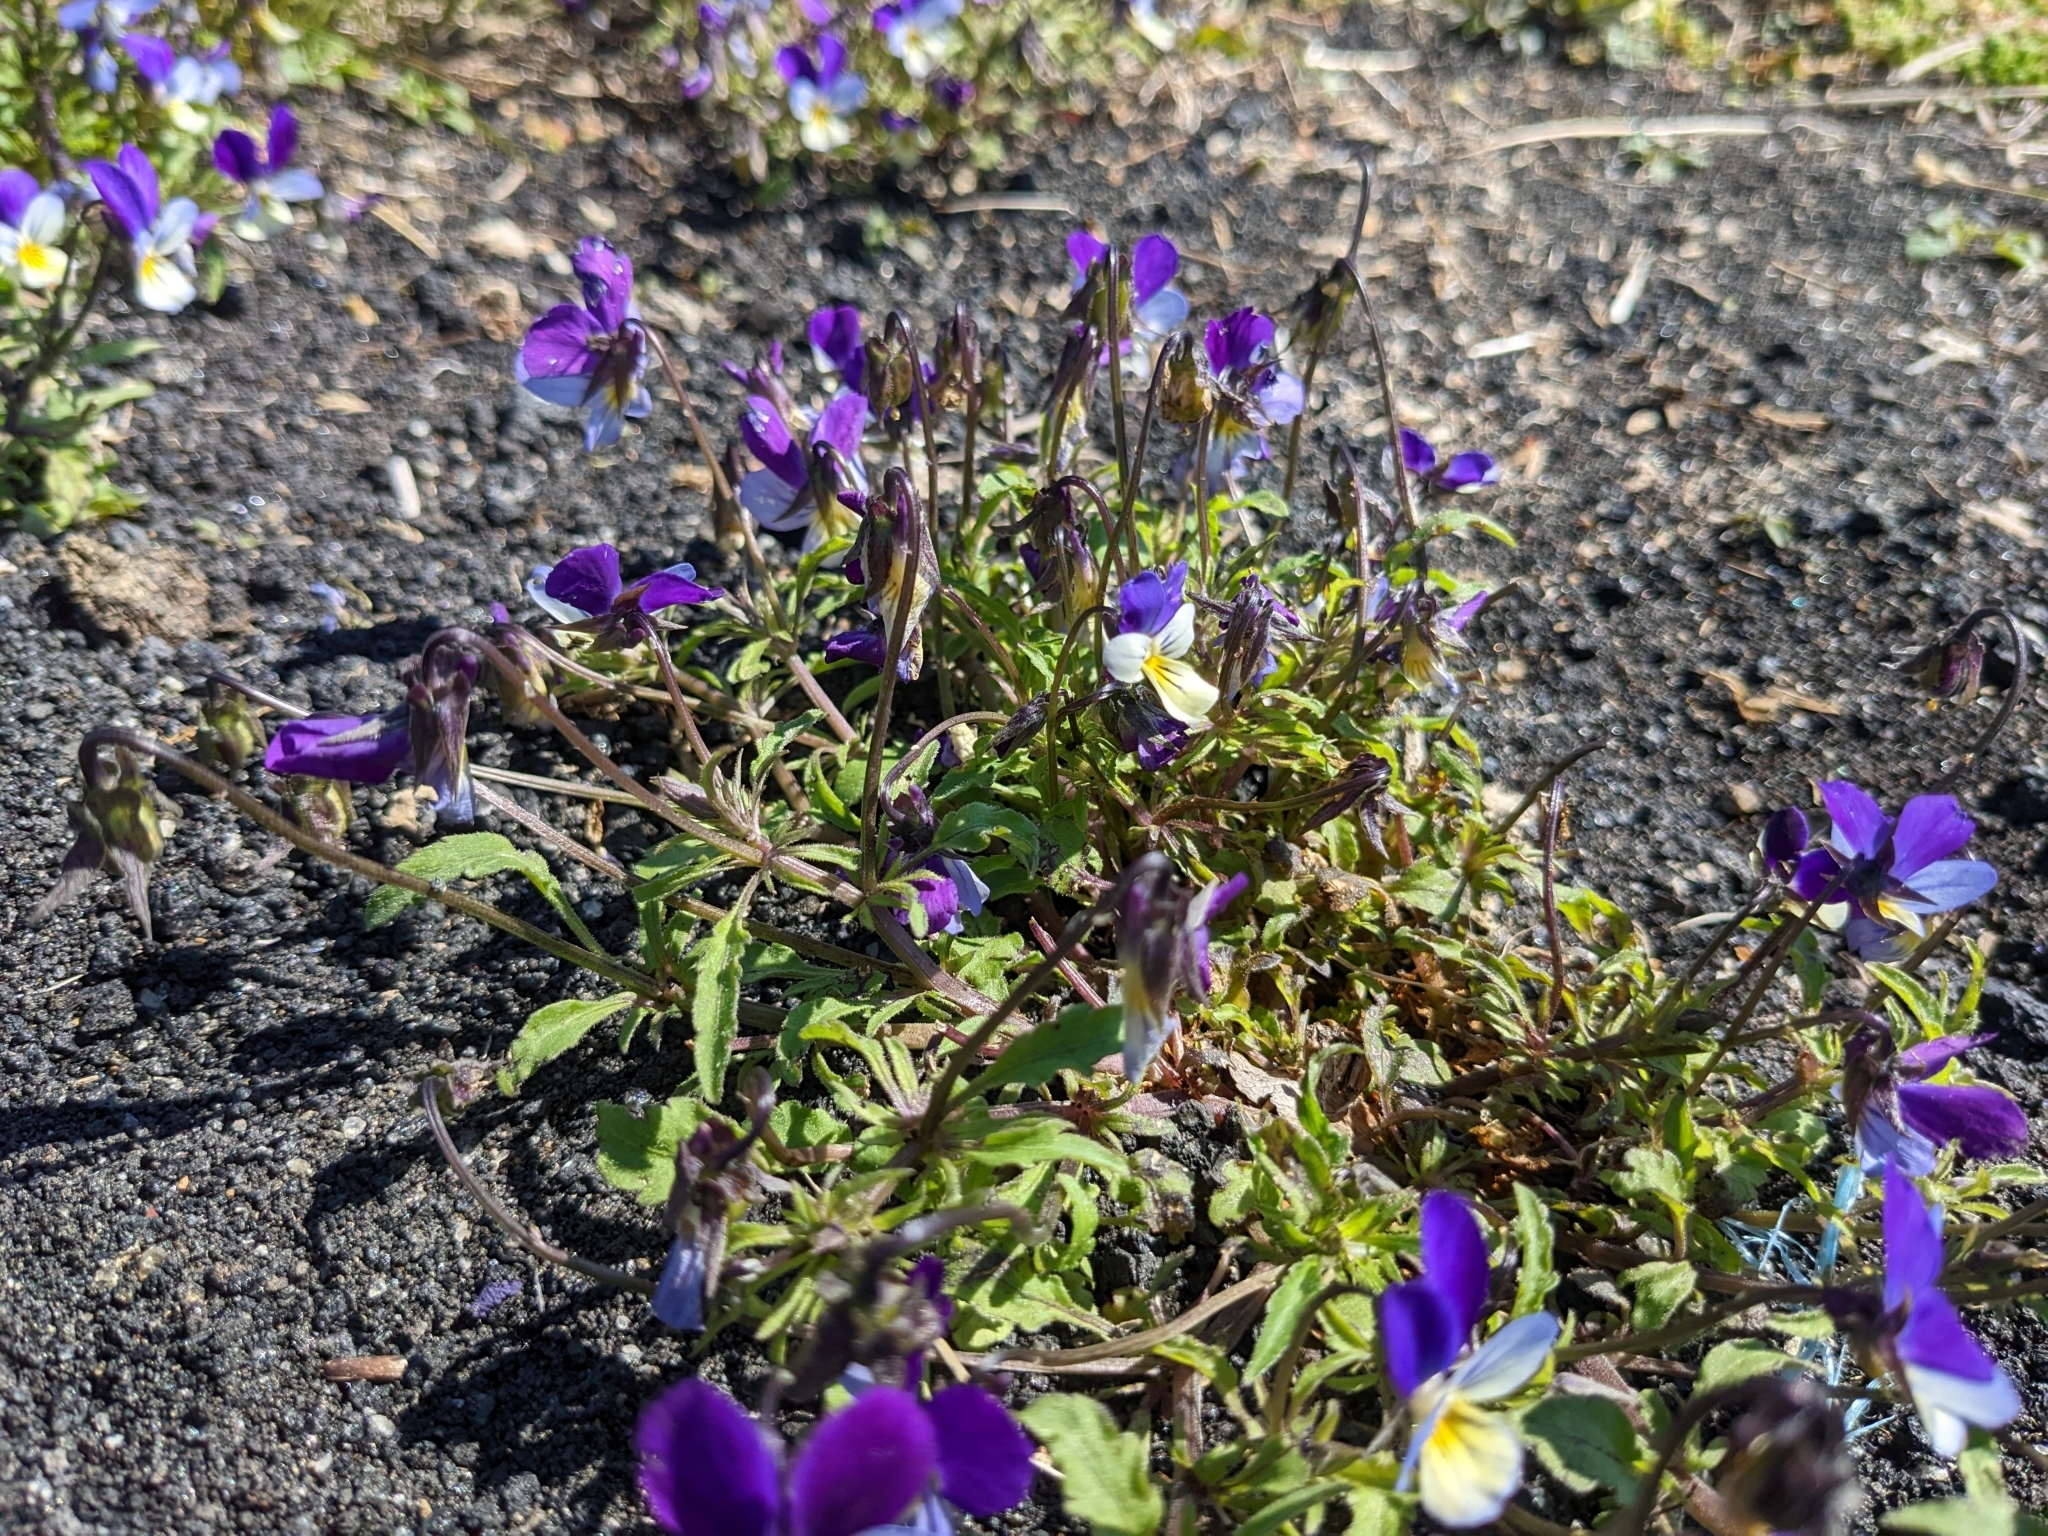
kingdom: Plantae
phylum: Tracheophyta
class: Magnoliopsida
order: Malpighiales
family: Violaceae
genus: Viola
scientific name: Viola tricolor
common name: Pansy
